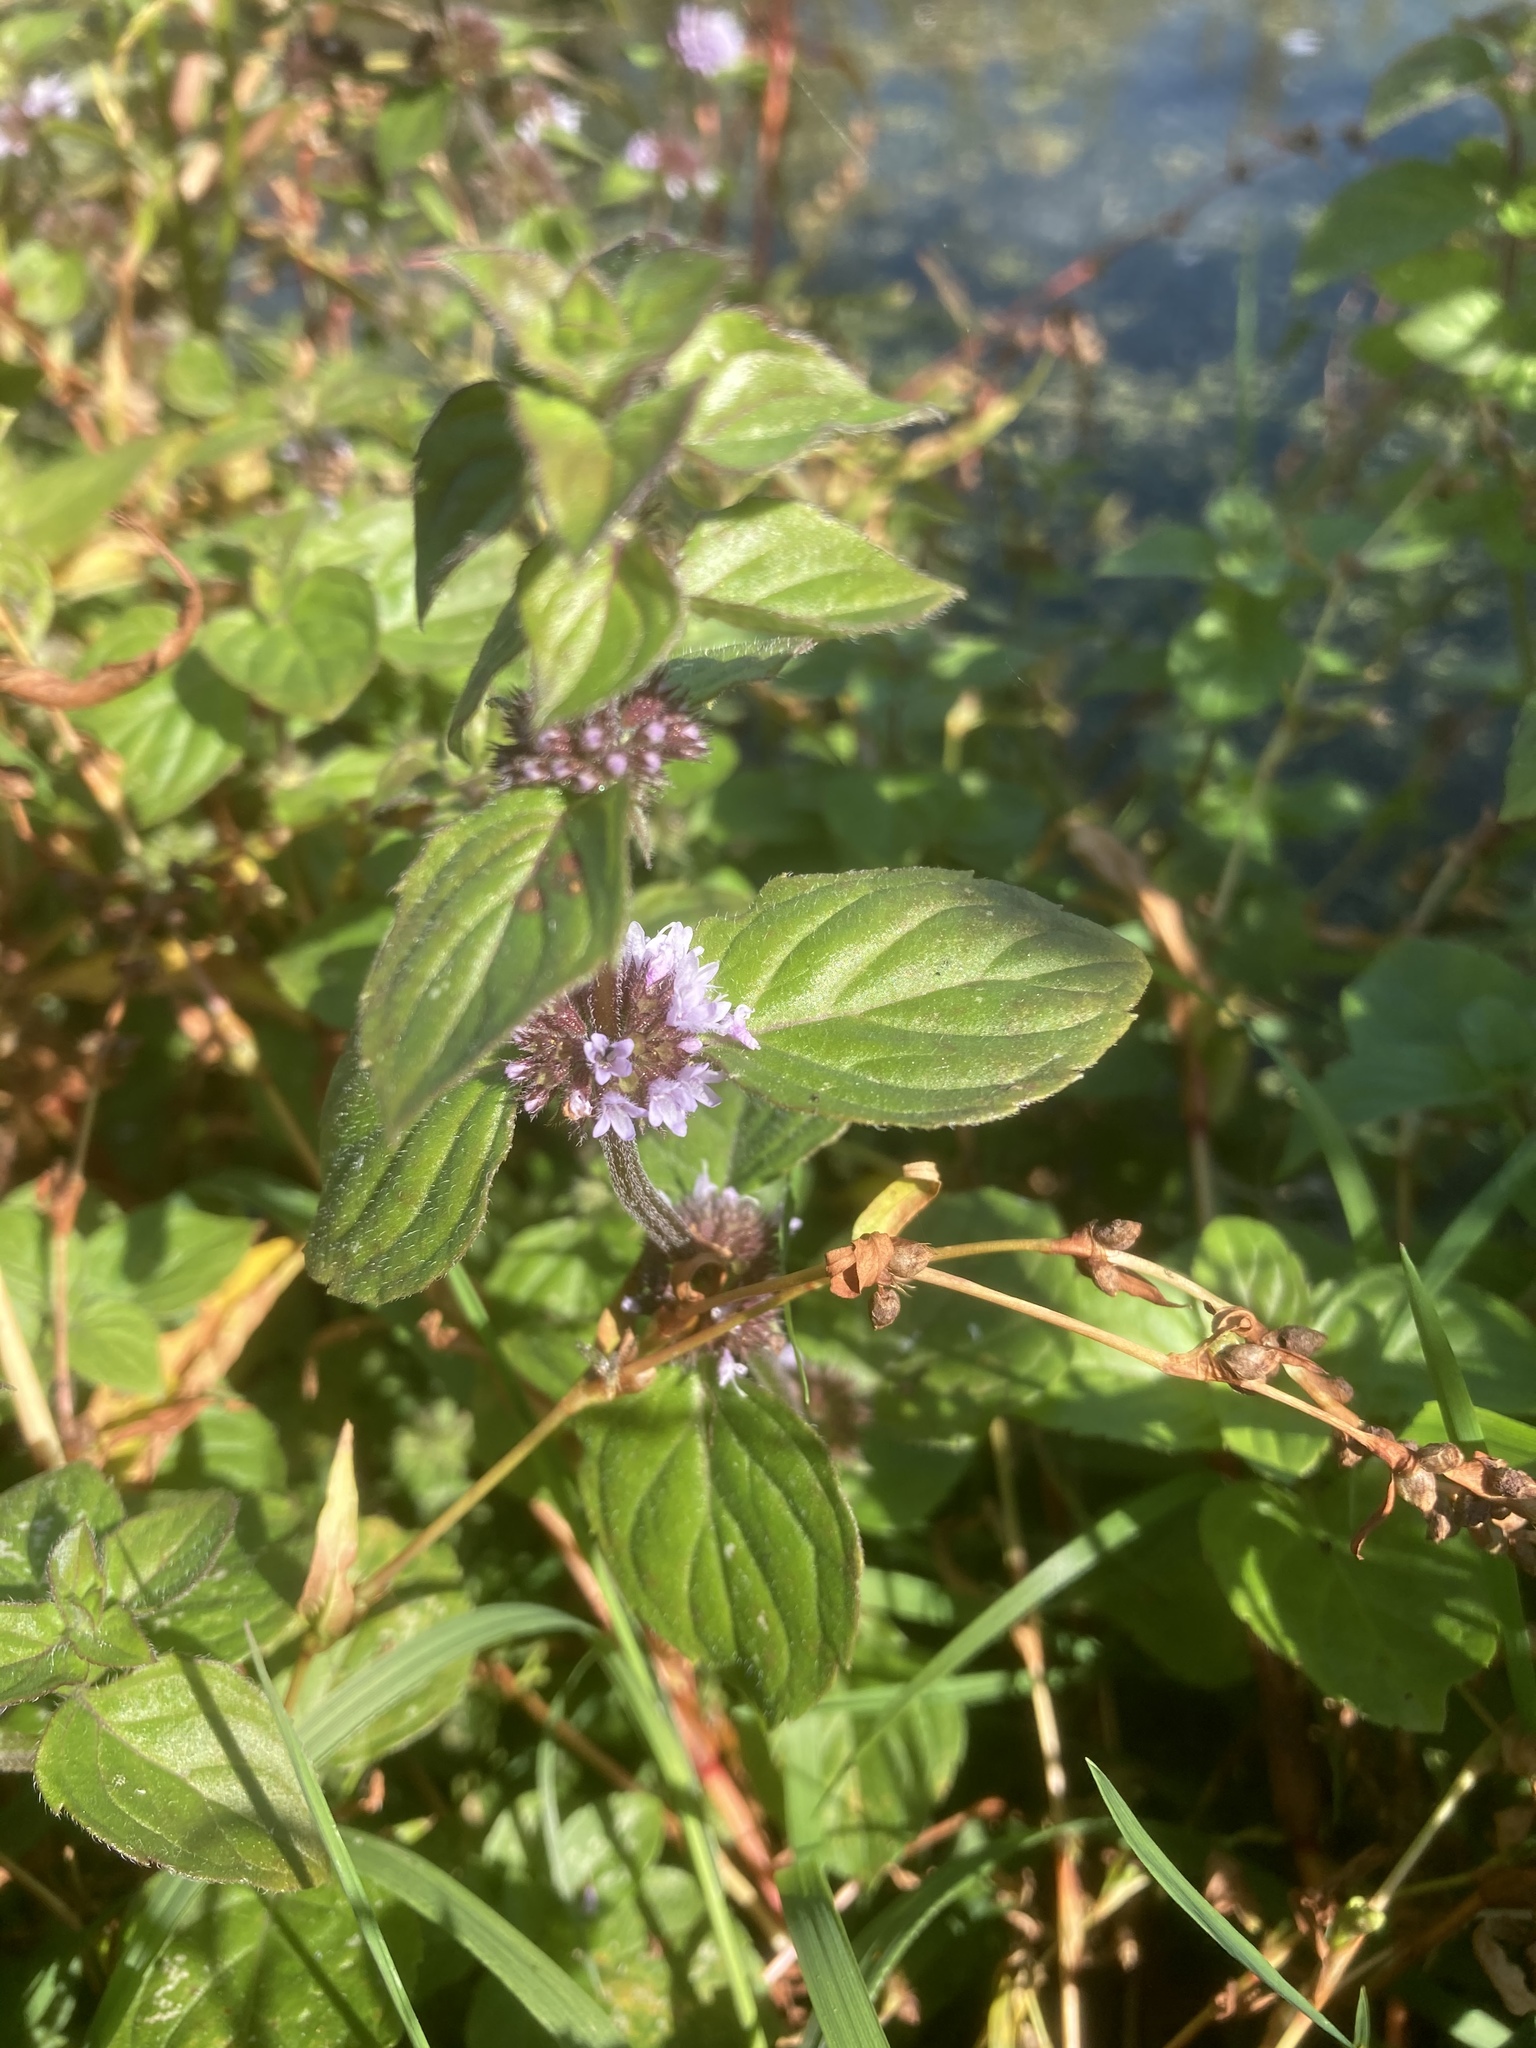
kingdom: Plantae
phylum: Tracheophyta
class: Magnoliopsida
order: Lamiales
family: Lamiaceae
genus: Mentha
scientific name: Mentha pulegium
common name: Pennyroyal
